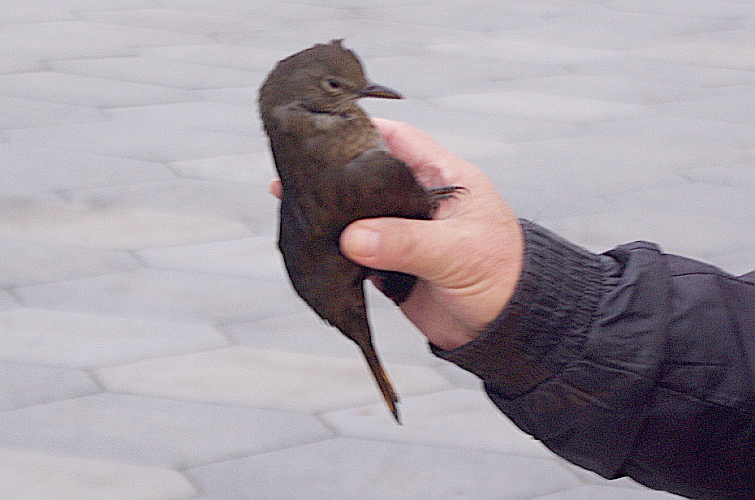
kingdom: Animalia
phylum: Chordata
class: Aves
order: Passeriformes
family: Turdidae
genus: Turdus
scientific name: Turdus merula
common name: Common blackbird
